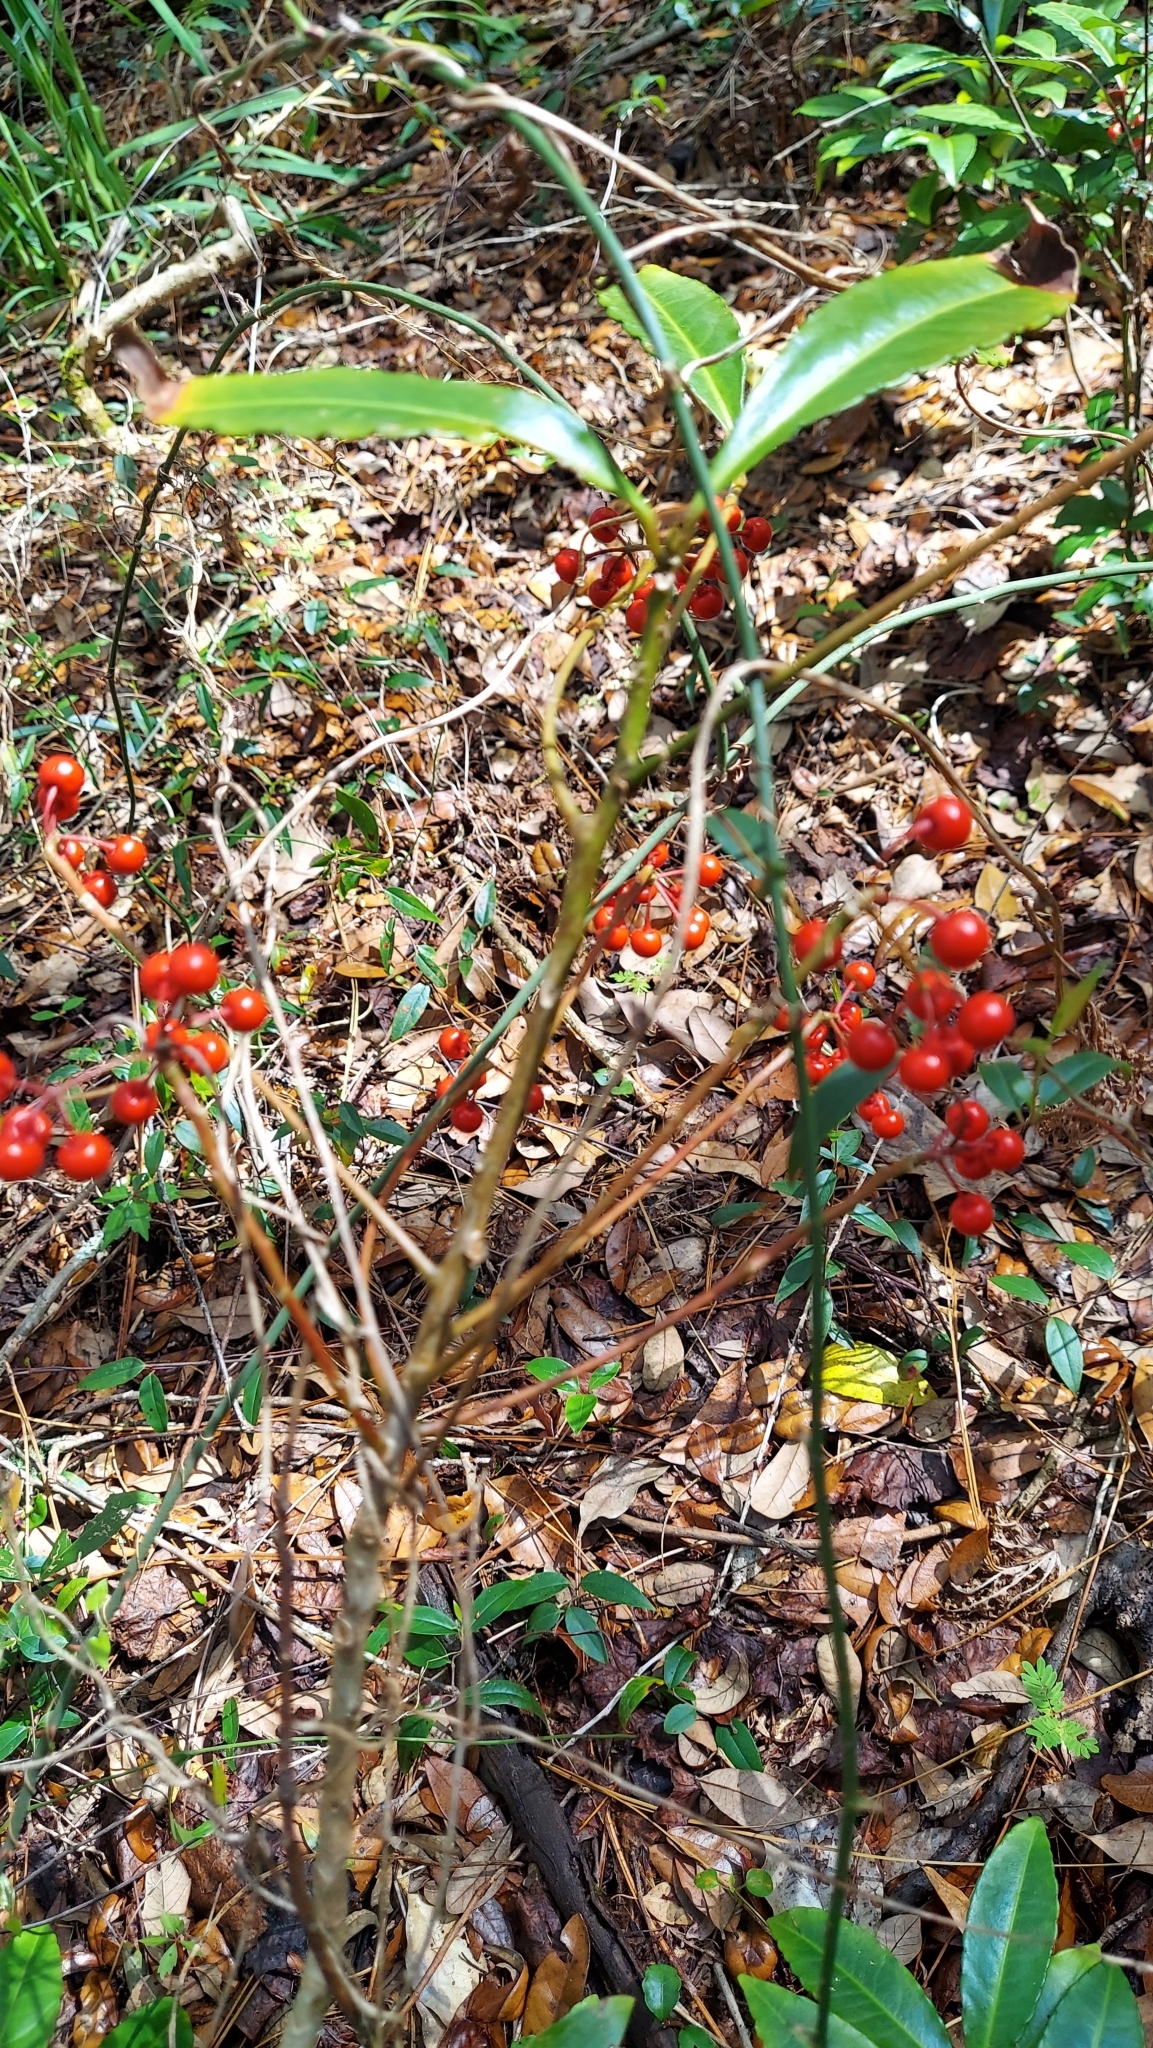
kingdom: Plantae
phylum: Tracheophyta
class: Magnoliopsida
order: Ericales
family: Primulaceae
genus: Ardisia
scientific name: Ardisia crenata
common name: Hen's eyes
